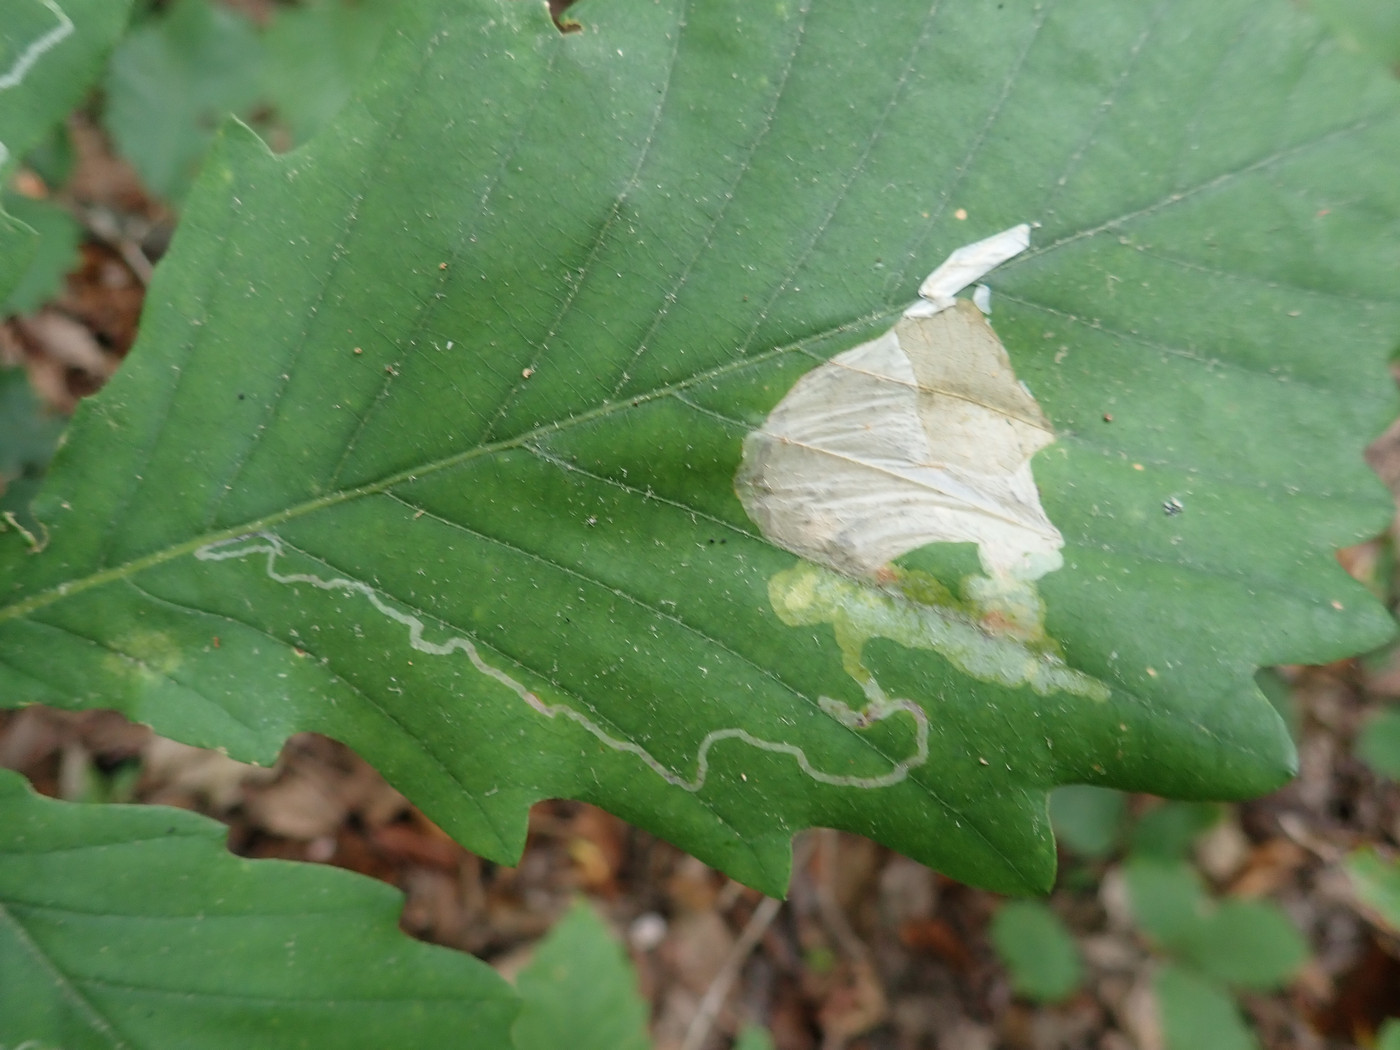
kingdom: Animalia
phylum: Arthropoda
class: Insecta
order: Lepidoptera
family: Gracillariidae
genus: Cryptolectica
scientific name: Cryptolectica
